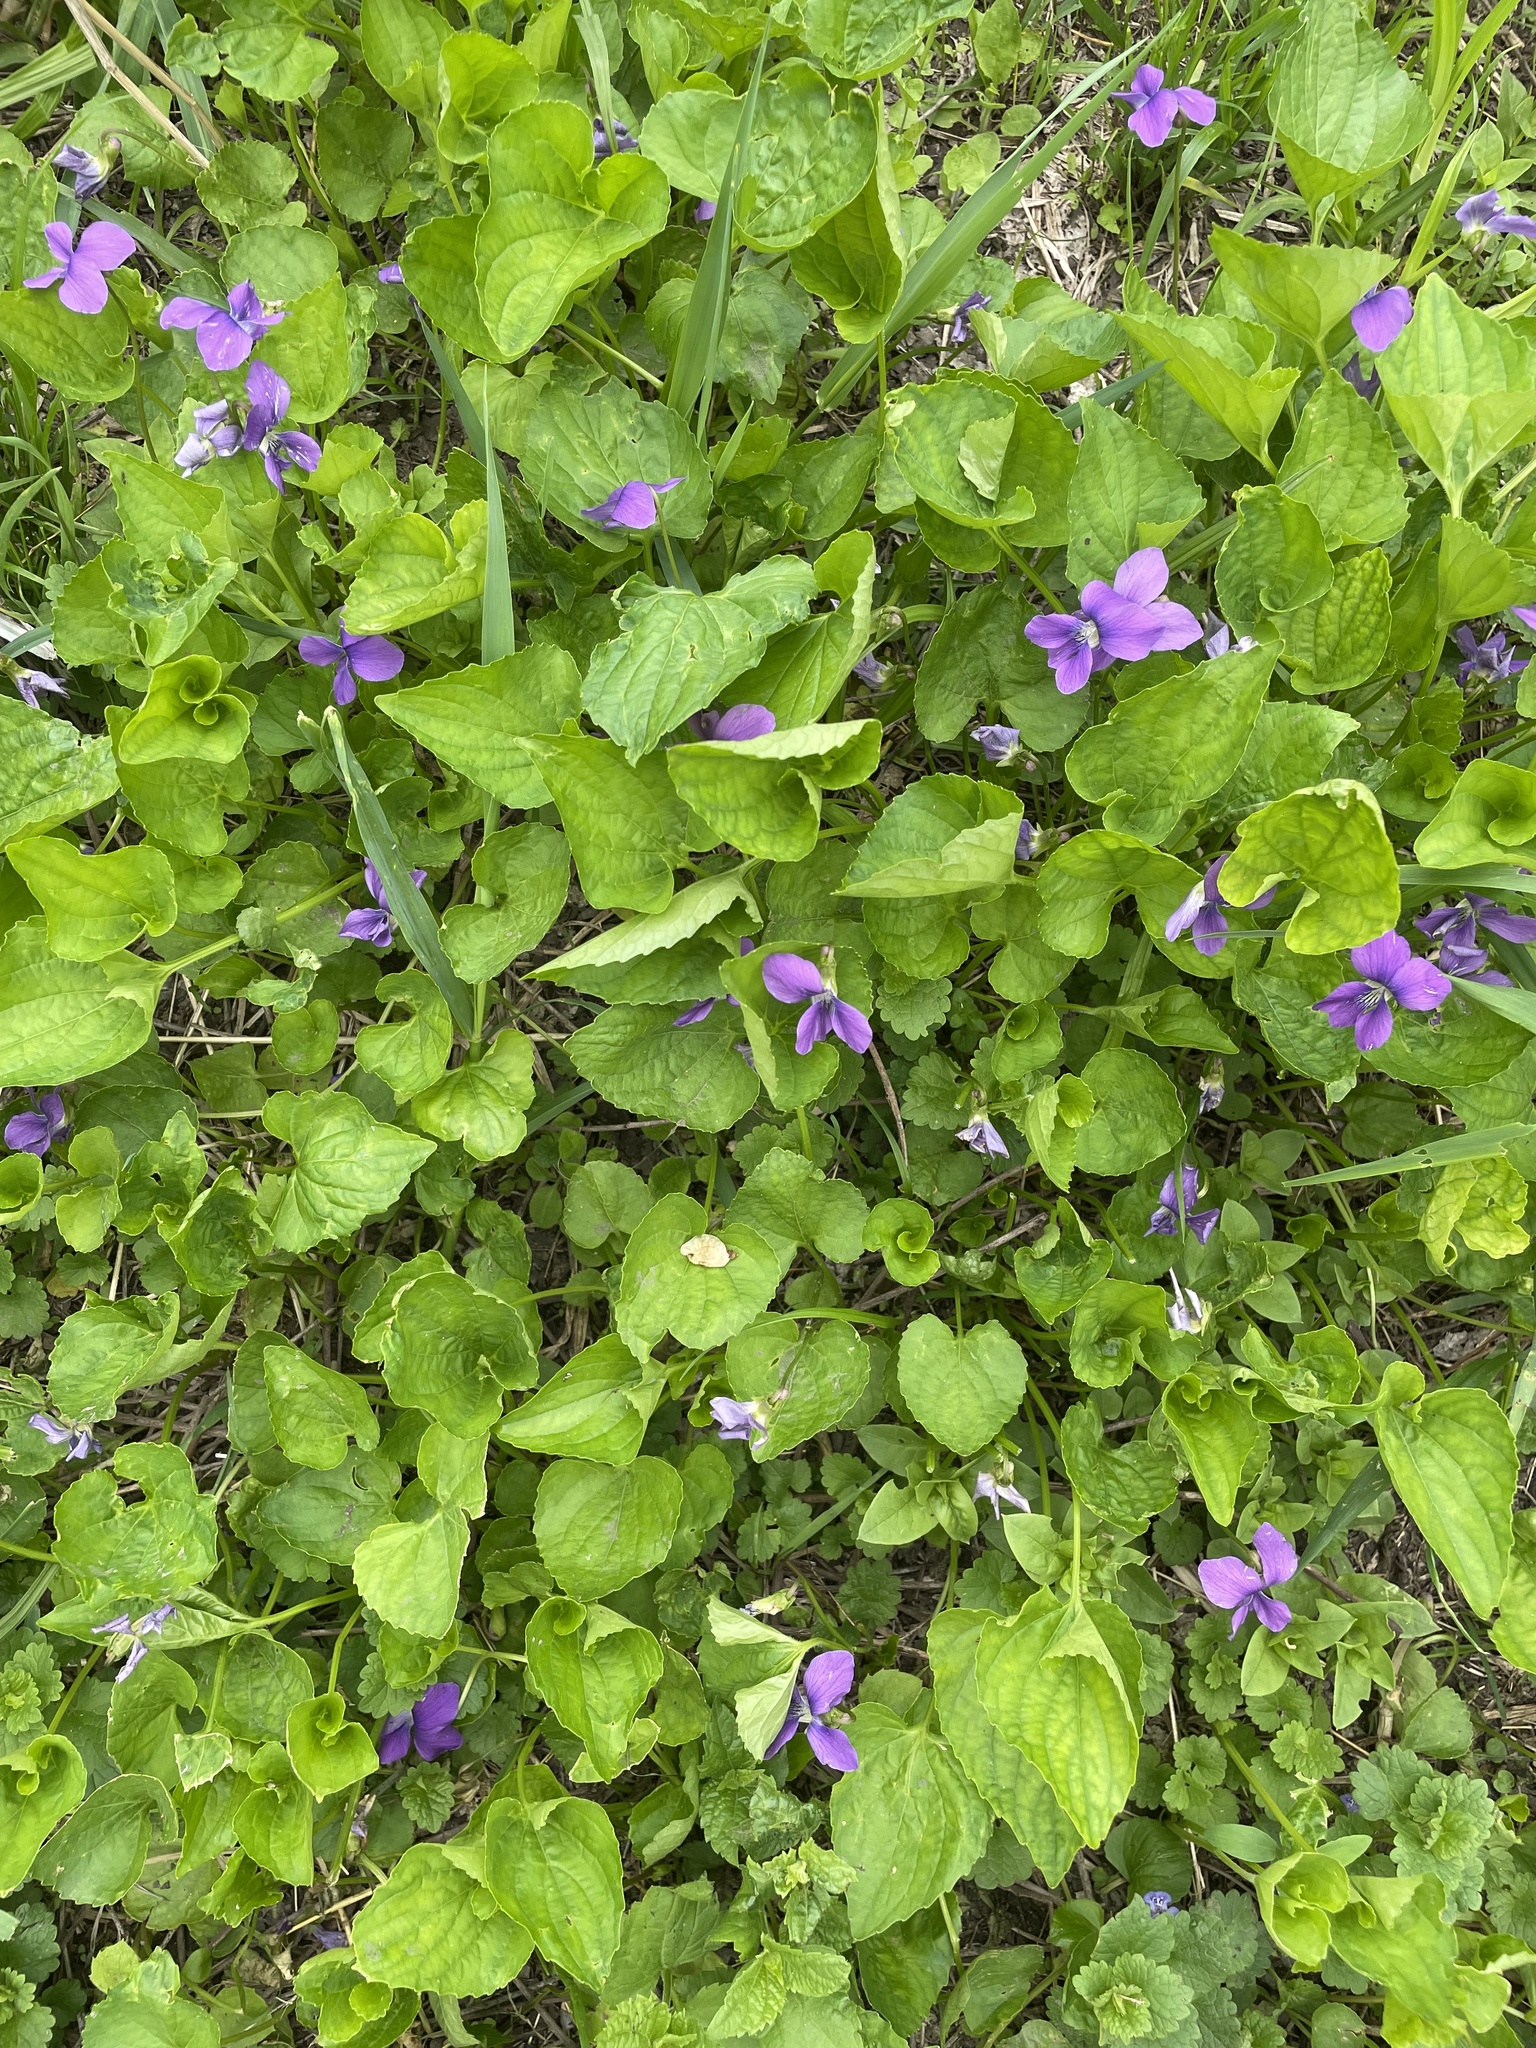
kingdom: Plantae
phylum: Tracheophyta
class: Magnoliopsida
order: Malpighiales
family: Violaceae
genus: Viola
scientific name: Viola sororia
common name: Dooryard violet
